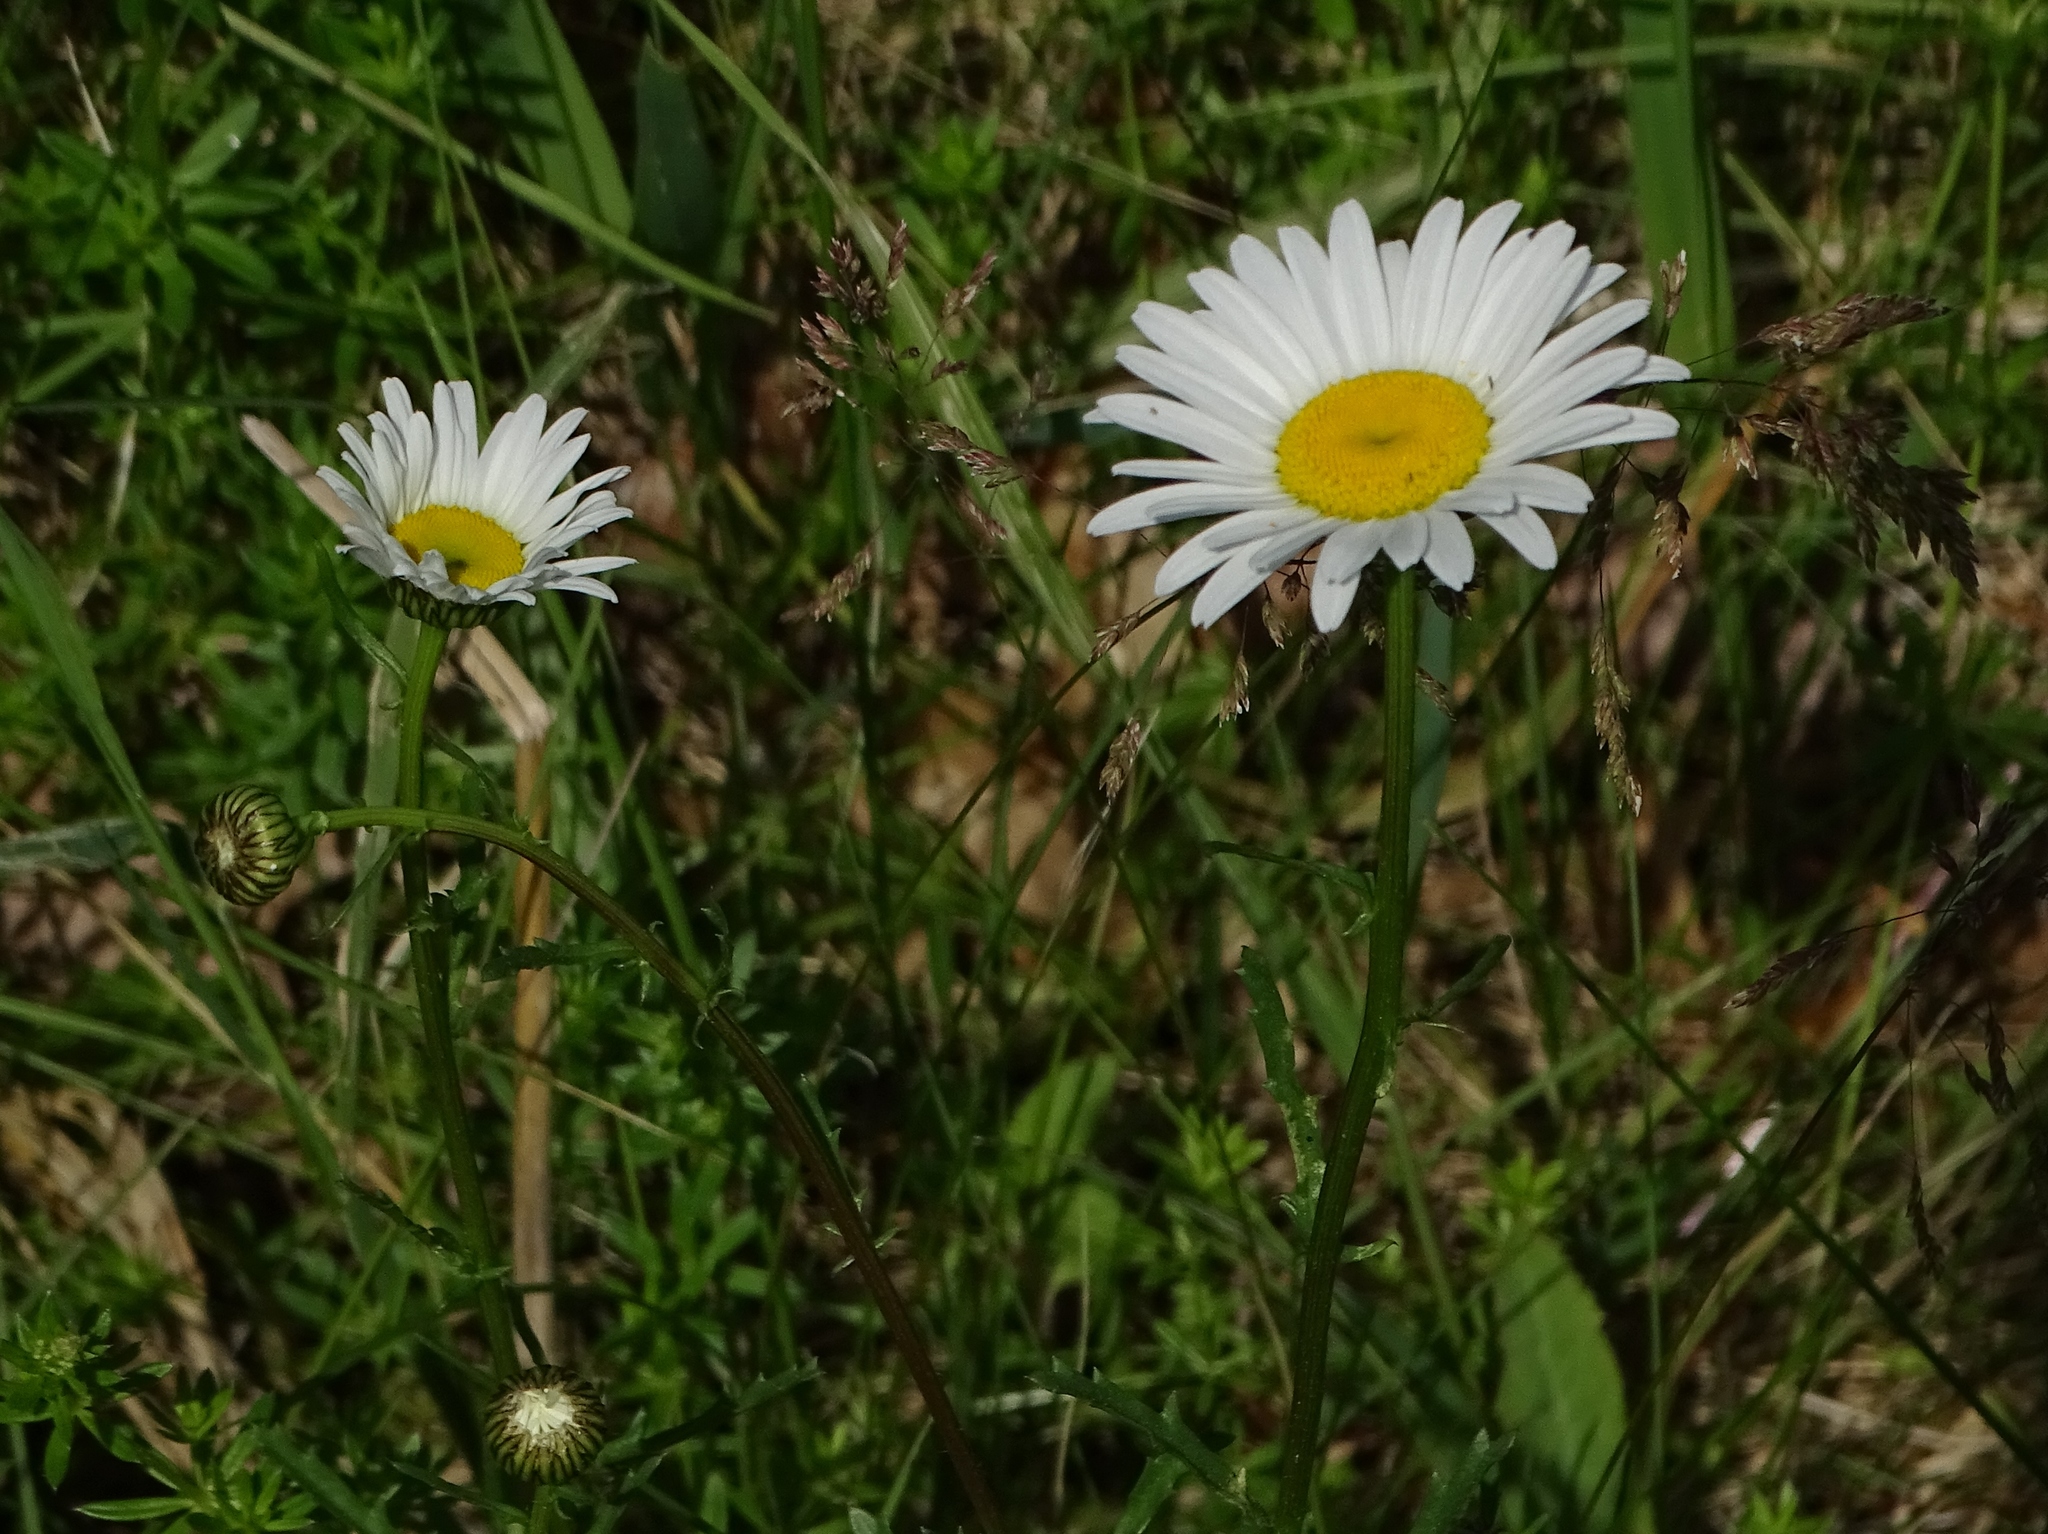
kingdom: Plantae
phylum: Tracheophyta
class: Magnoliopsida
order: Asterales
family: Asteraceae
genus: Leucanthemum
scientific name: Leucanthemum vulgare
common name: Oxeye daisy
